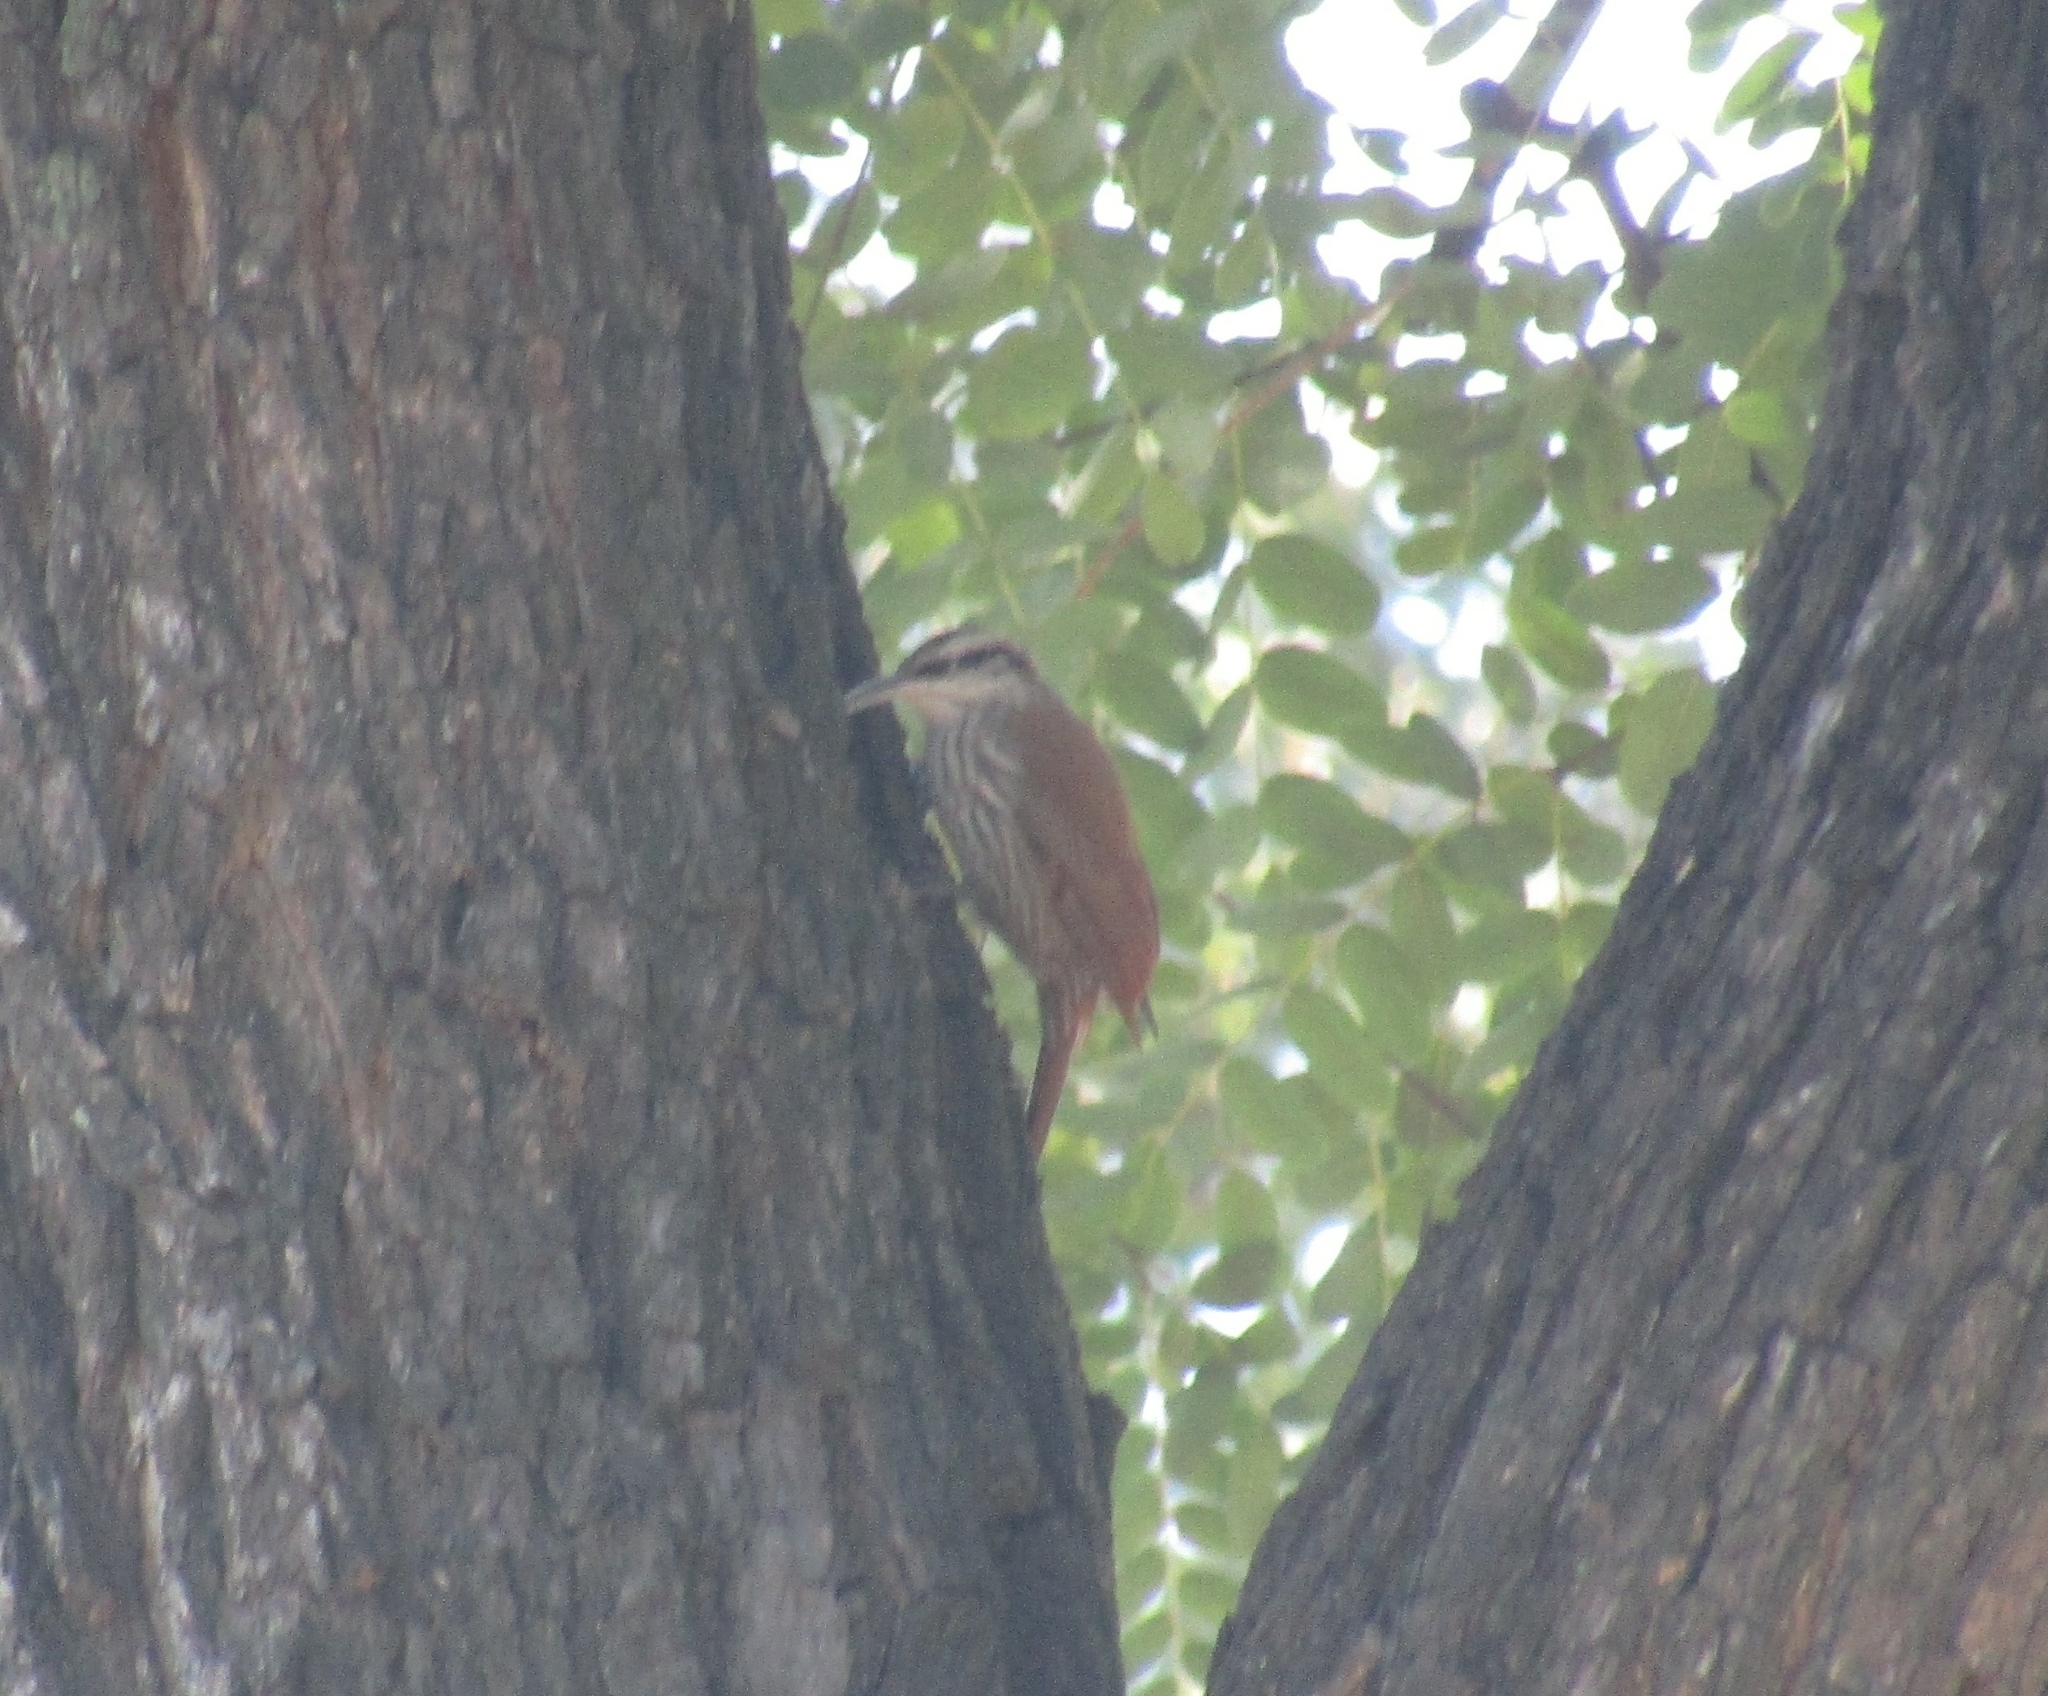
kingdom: Animalia
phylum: Chordata
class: Aves
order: Passeriformes
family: Furnariidae
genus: Lepidocolaptes
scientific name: Lepidocolaptes angustirostris
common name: Narrow-billed woodcreeper
